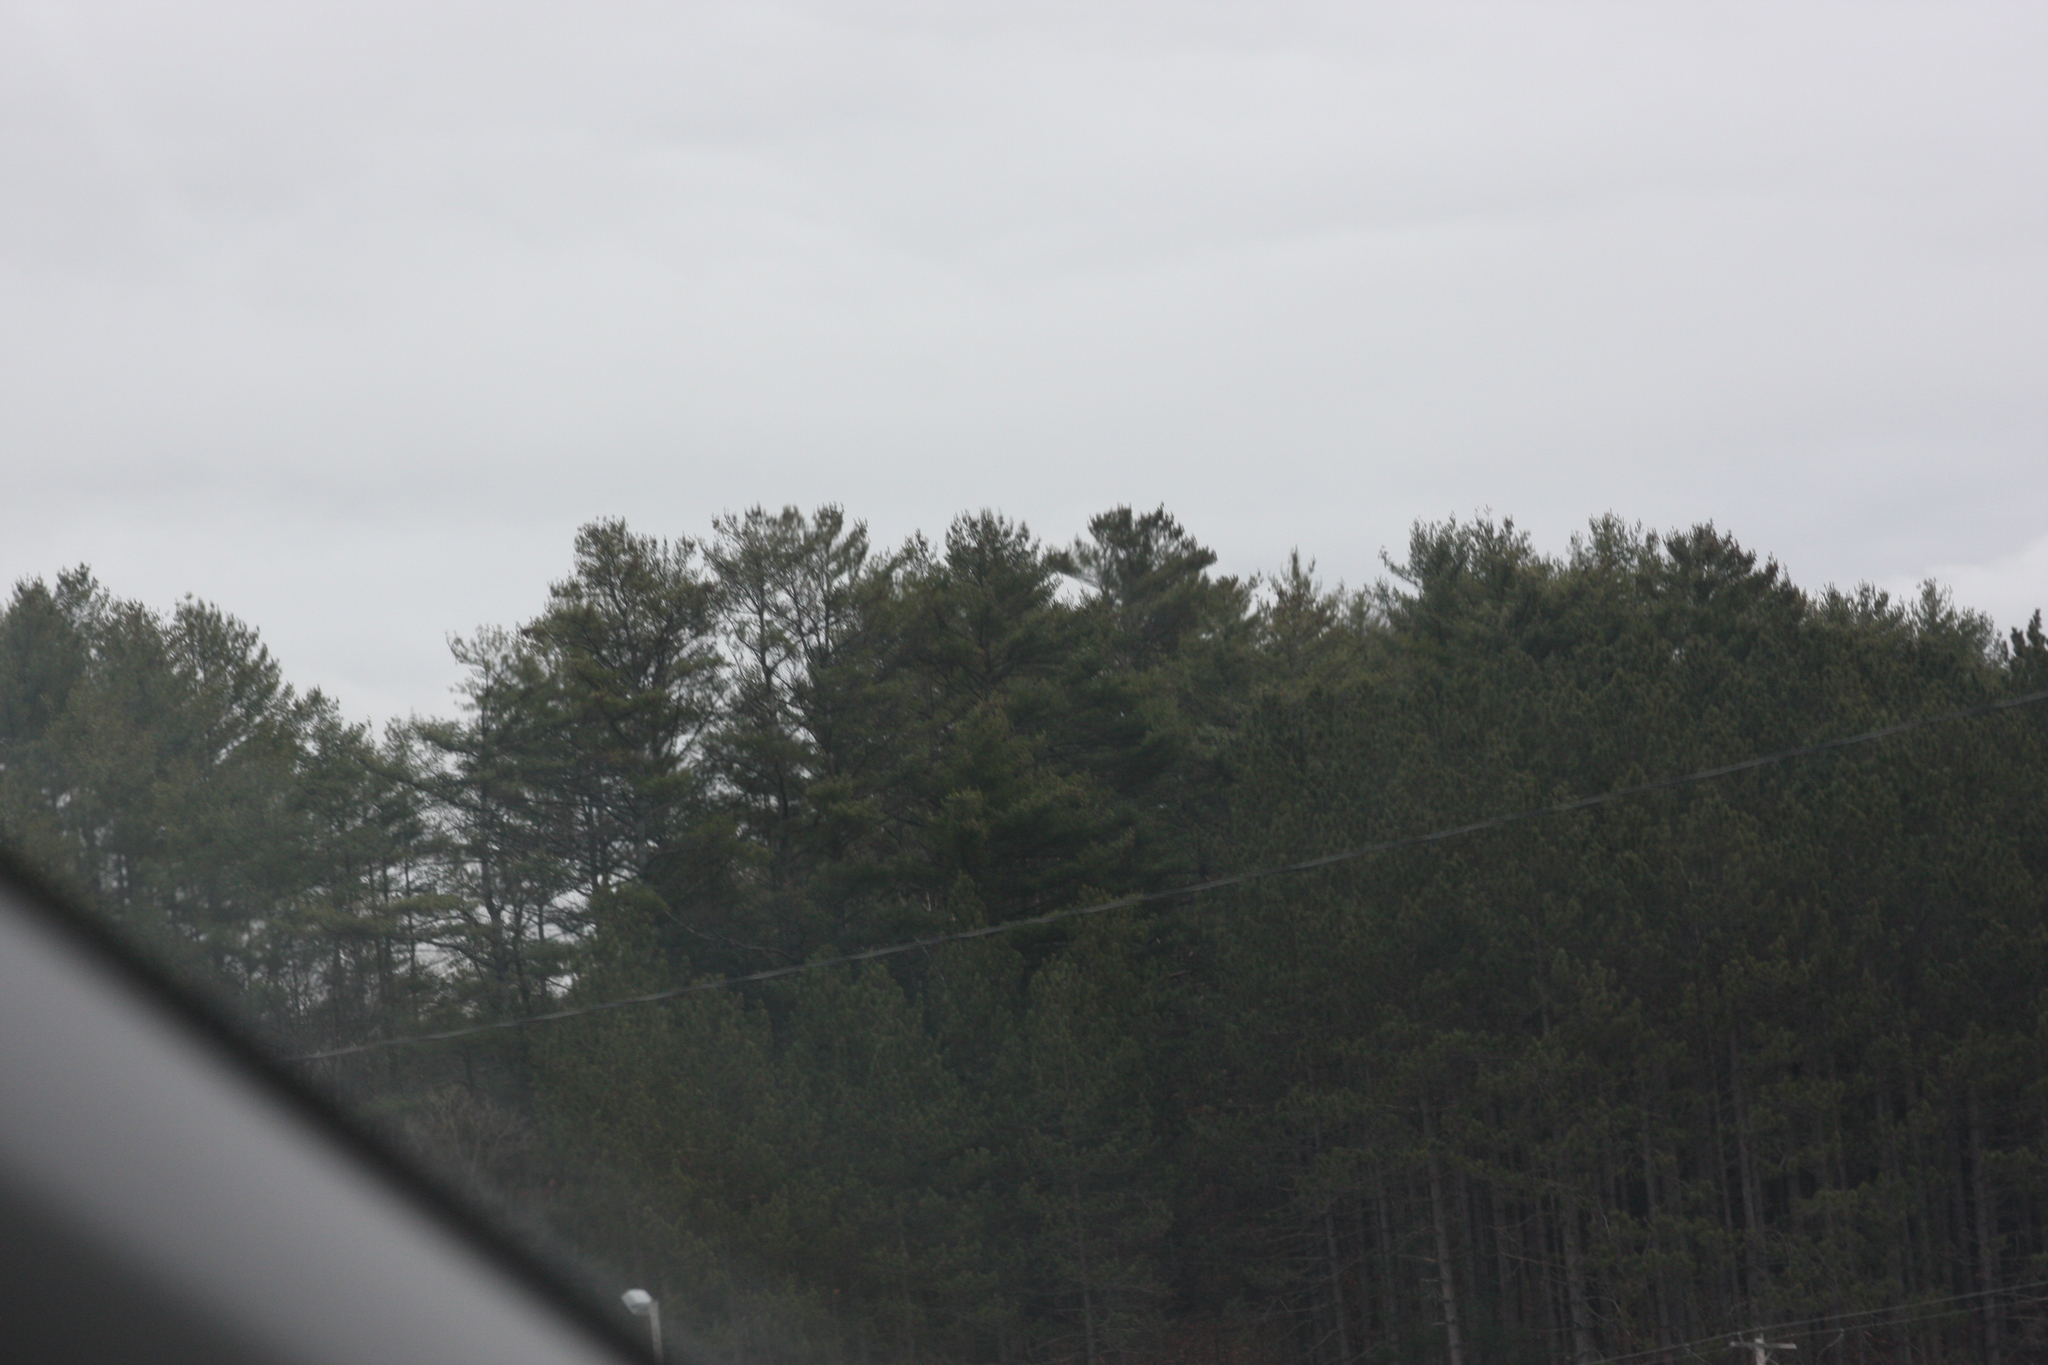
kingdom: Plantae
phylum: Tracheophyta
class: Pinopsida
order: Pinales
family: Pinaceae
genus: Pinus
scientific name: Pinus strobus
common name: Weymouth pine
